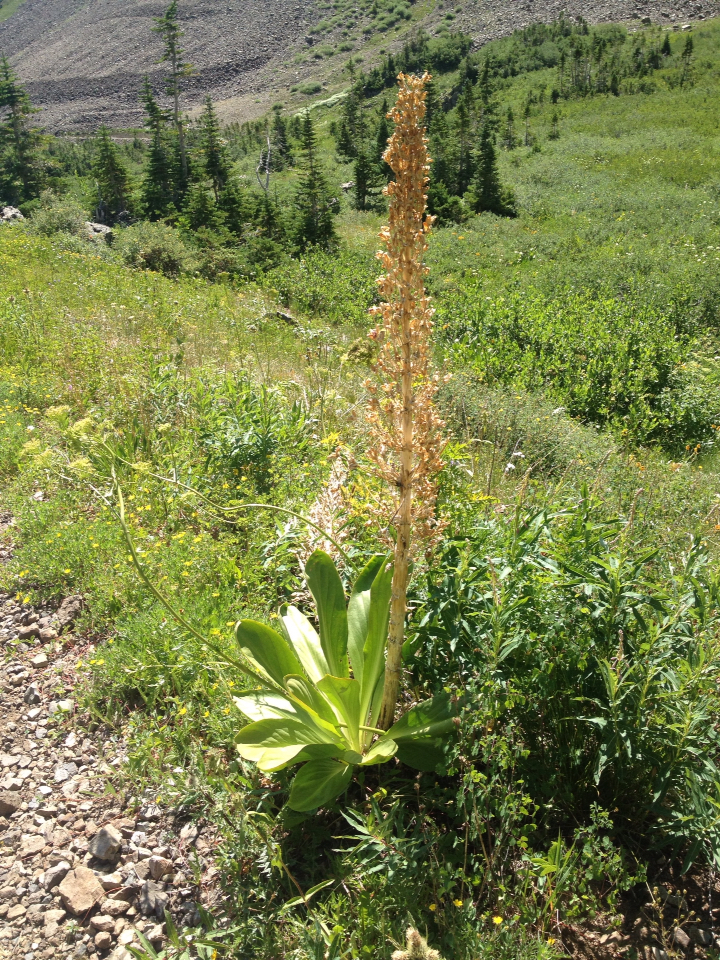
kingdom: Plantae
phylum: Tracheophyta
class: Magnoliopsida
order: Gentianales
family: Gentianaceae
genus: Frasera
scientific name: Frasera speciosa
